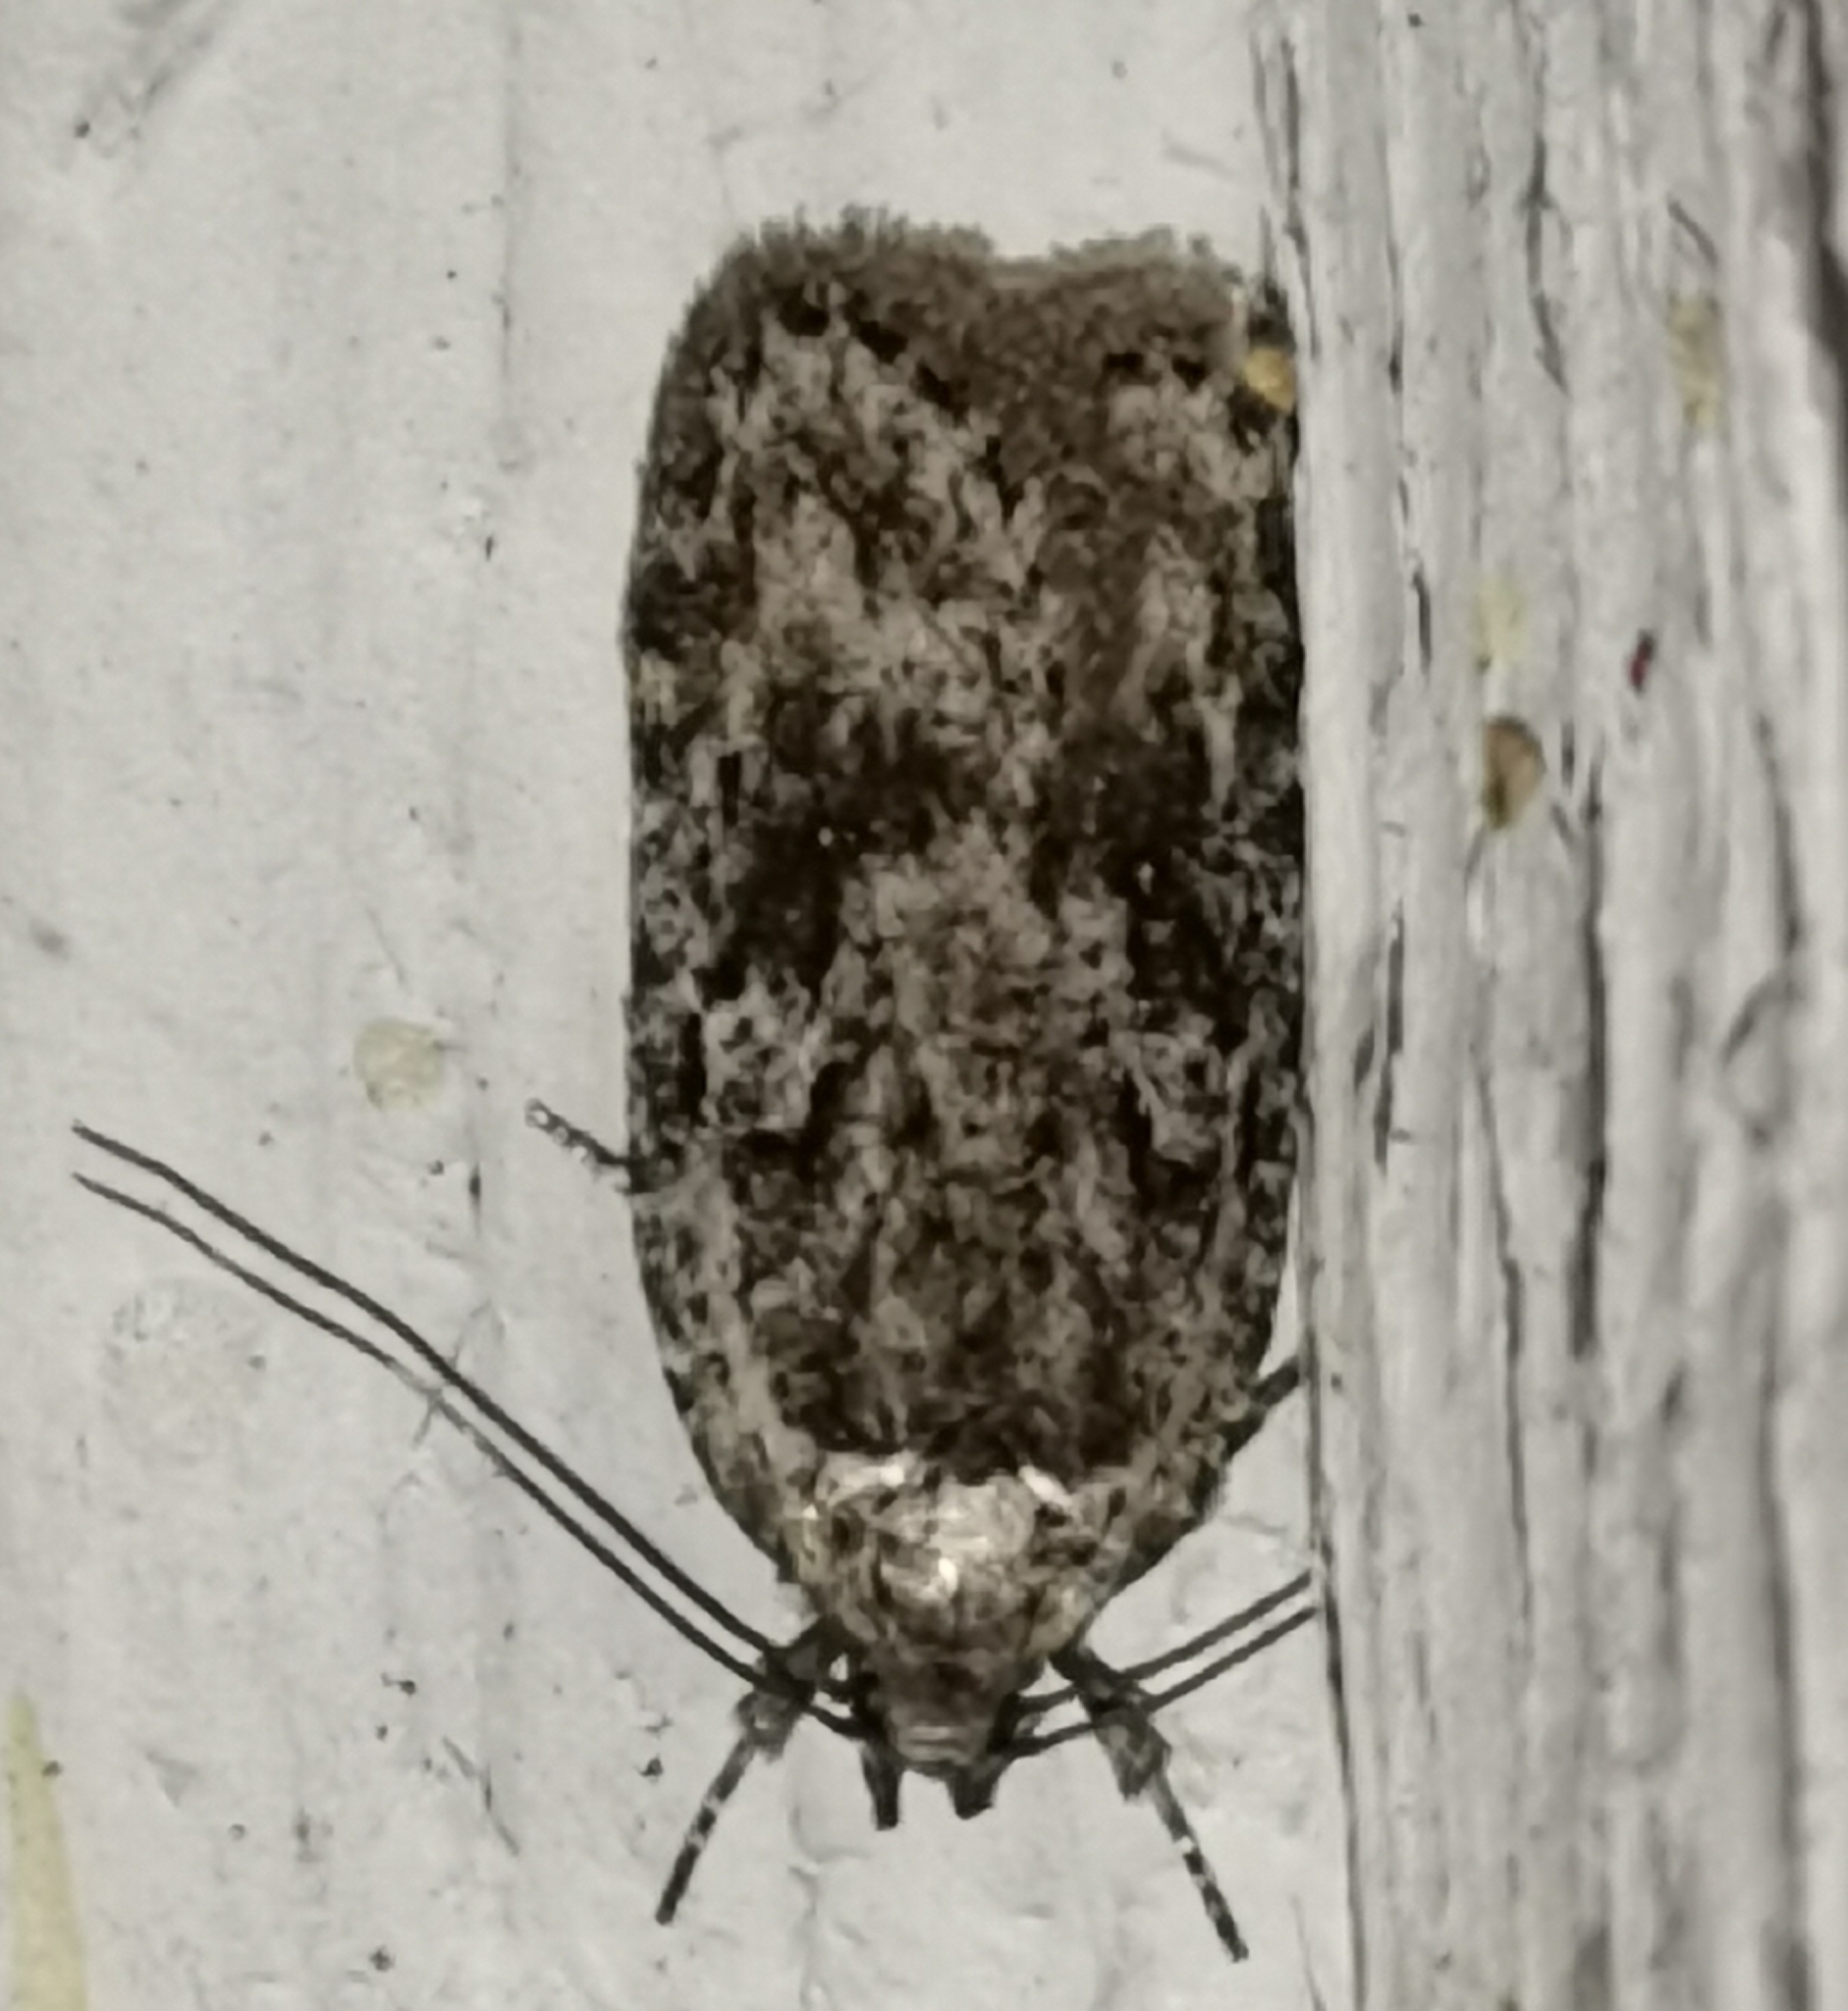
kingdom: Animalia
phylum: Arthropoda
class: Insecta
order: Lepidoptera
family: Depressariidae
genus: Exaeretia
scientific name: Exaeretia ciniflonella
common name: Scotch flat-body
